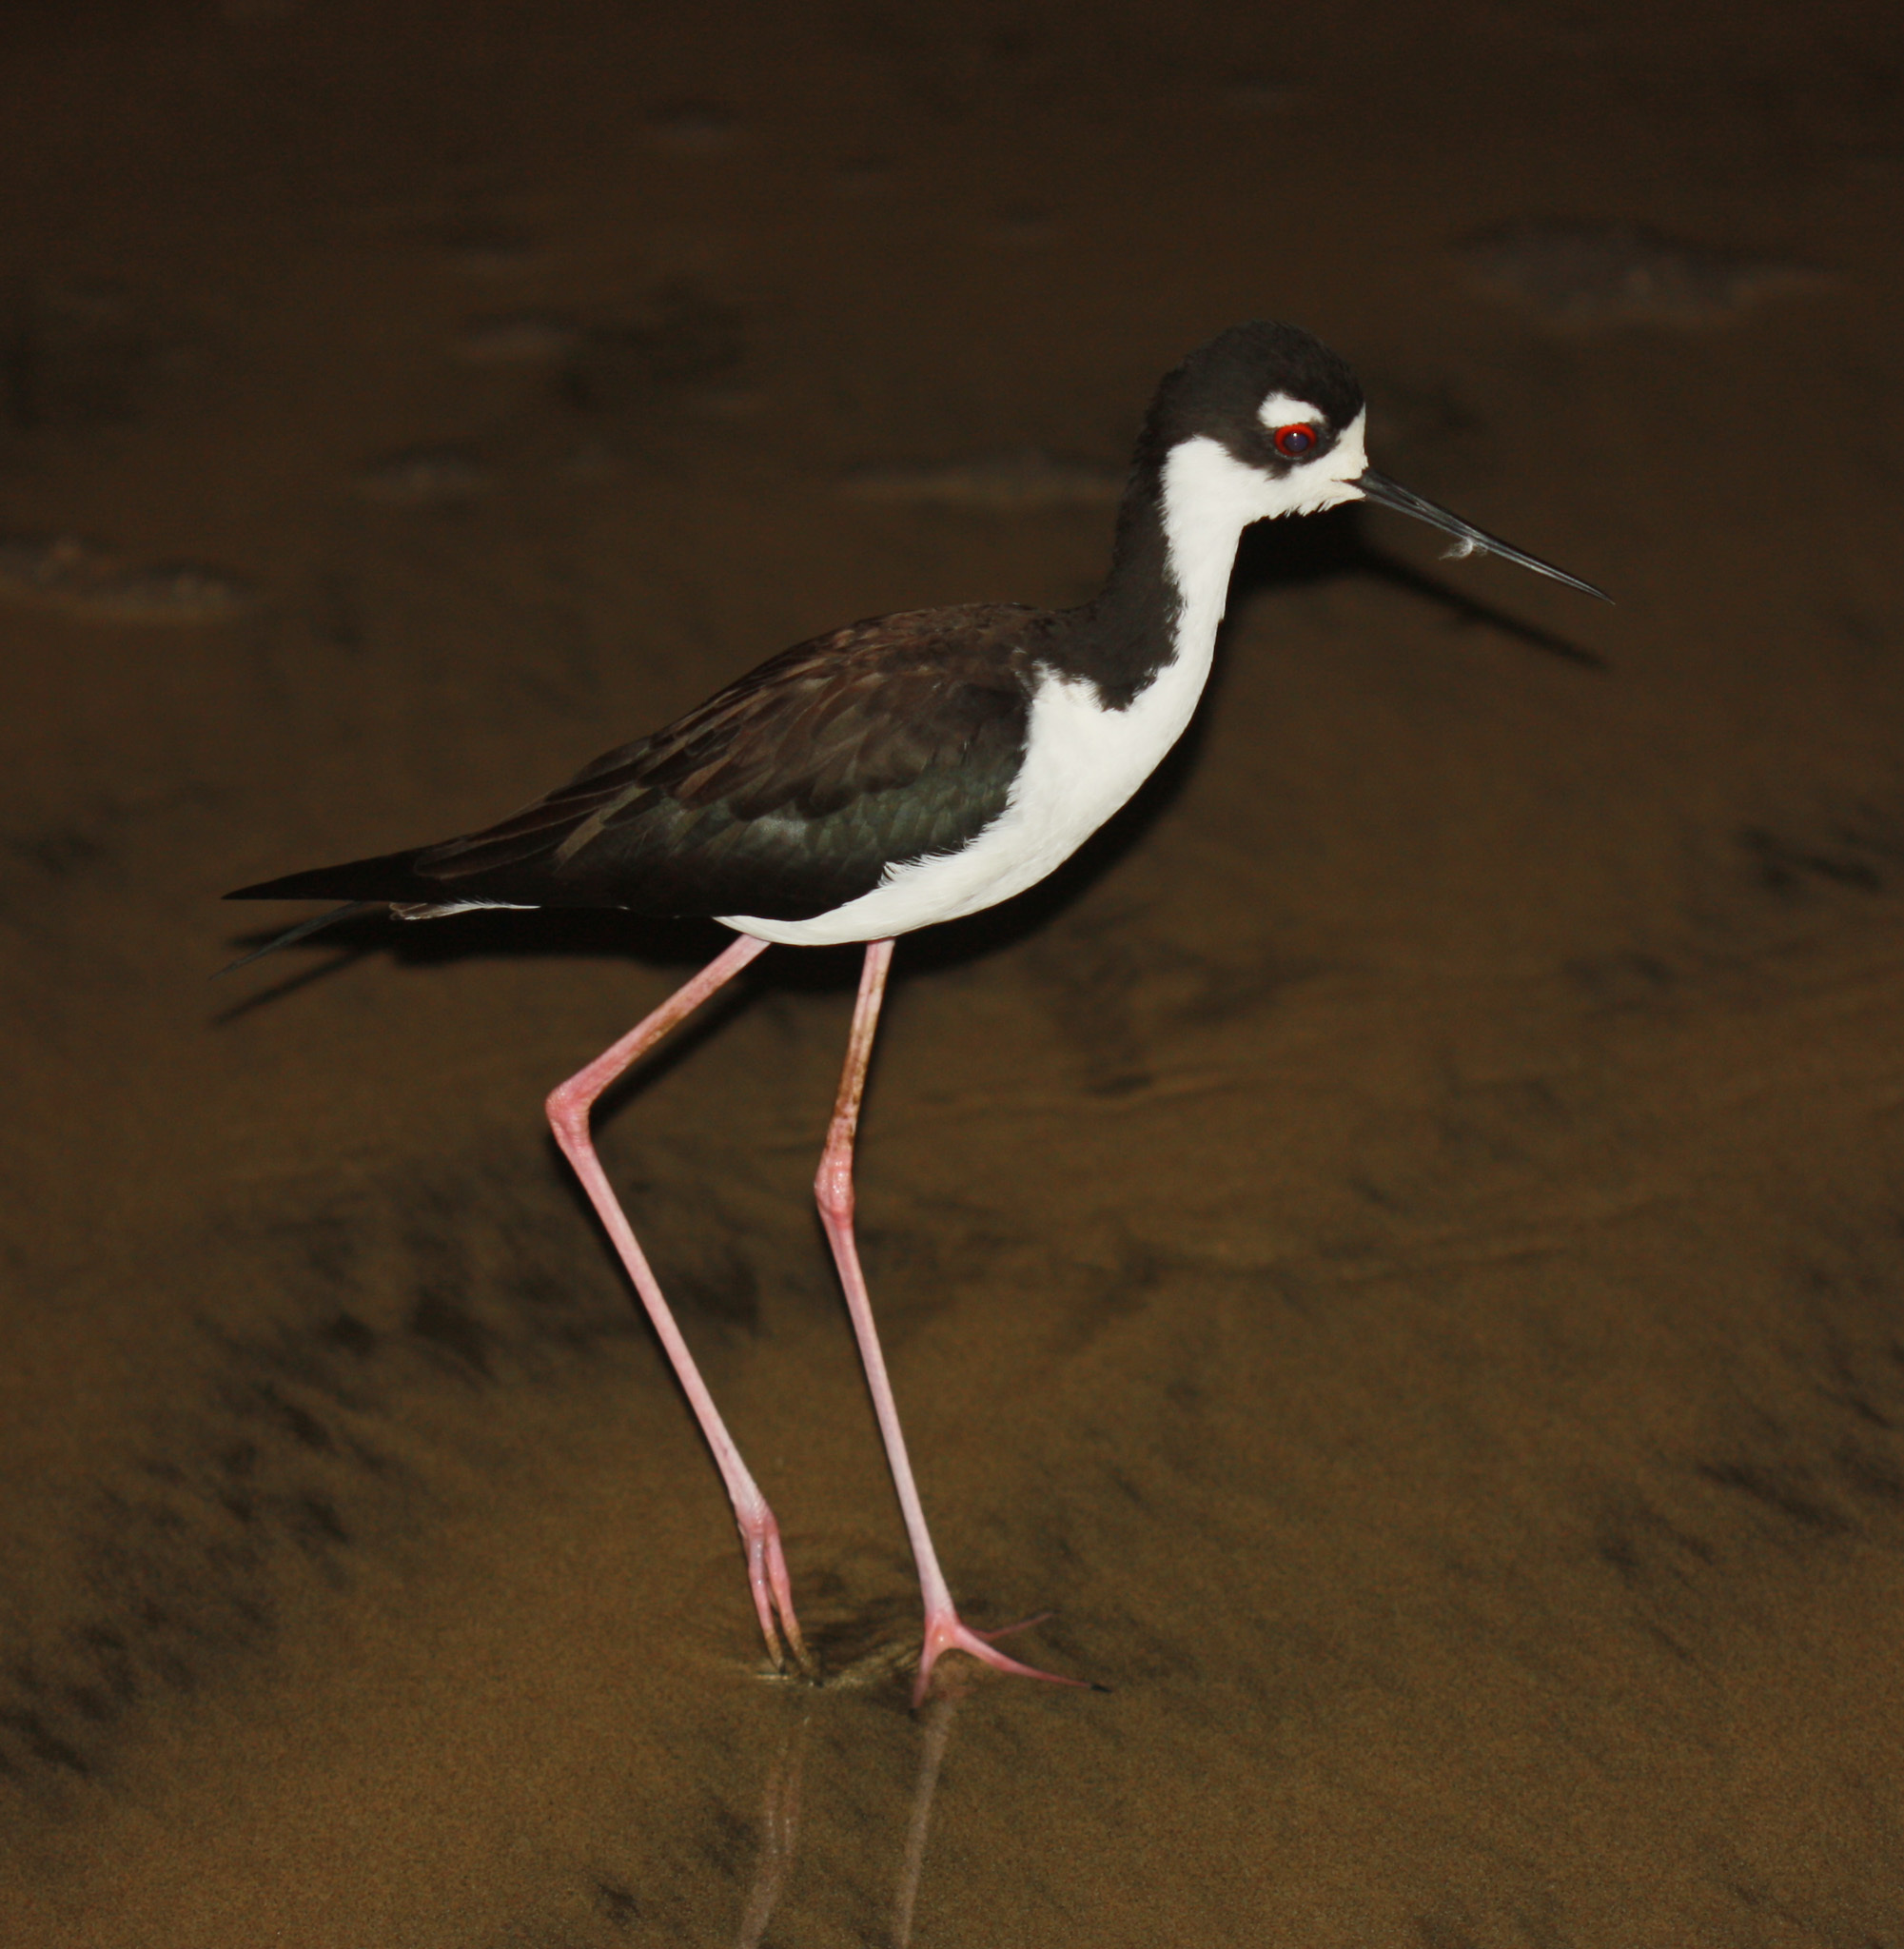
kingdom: Animalia
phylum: Chordata
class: Aves
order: Charadriiformes
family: Recurvirostridae
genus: Himantopus
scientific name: Himantopus mexicanus
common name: Black-necked stilt
